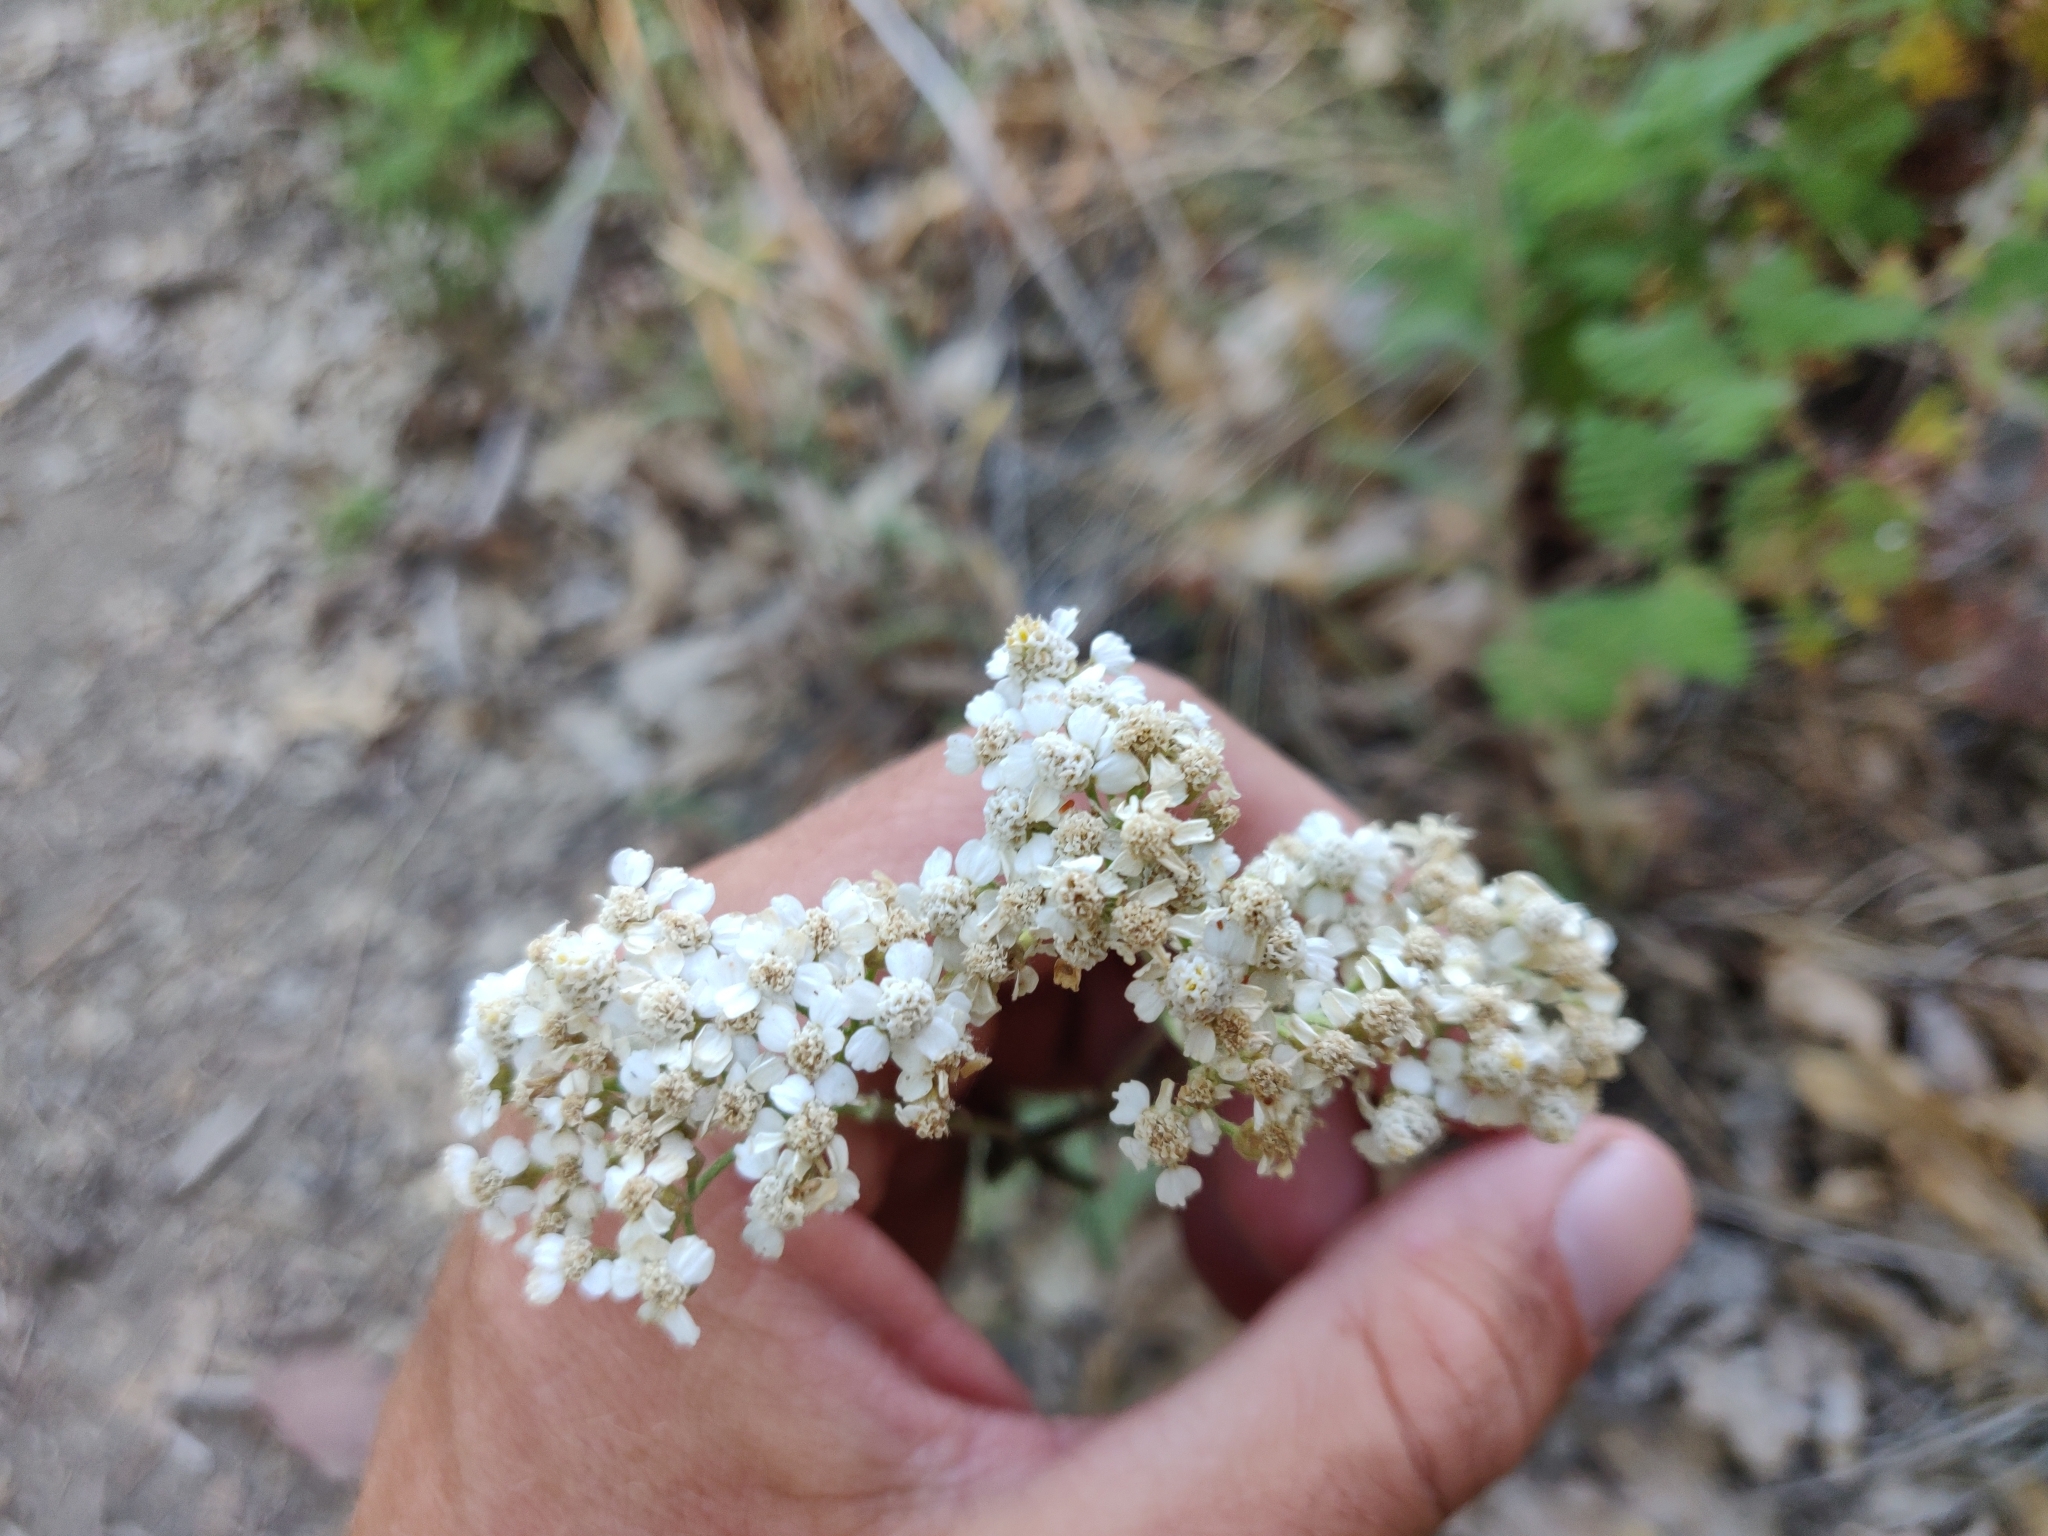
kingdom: Plantae
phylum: Tracheophyta
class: Magnoliopsida
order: Asterales
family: Asteraceae
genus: Achillea
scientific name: Achillea millefolium
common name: Yarrow
